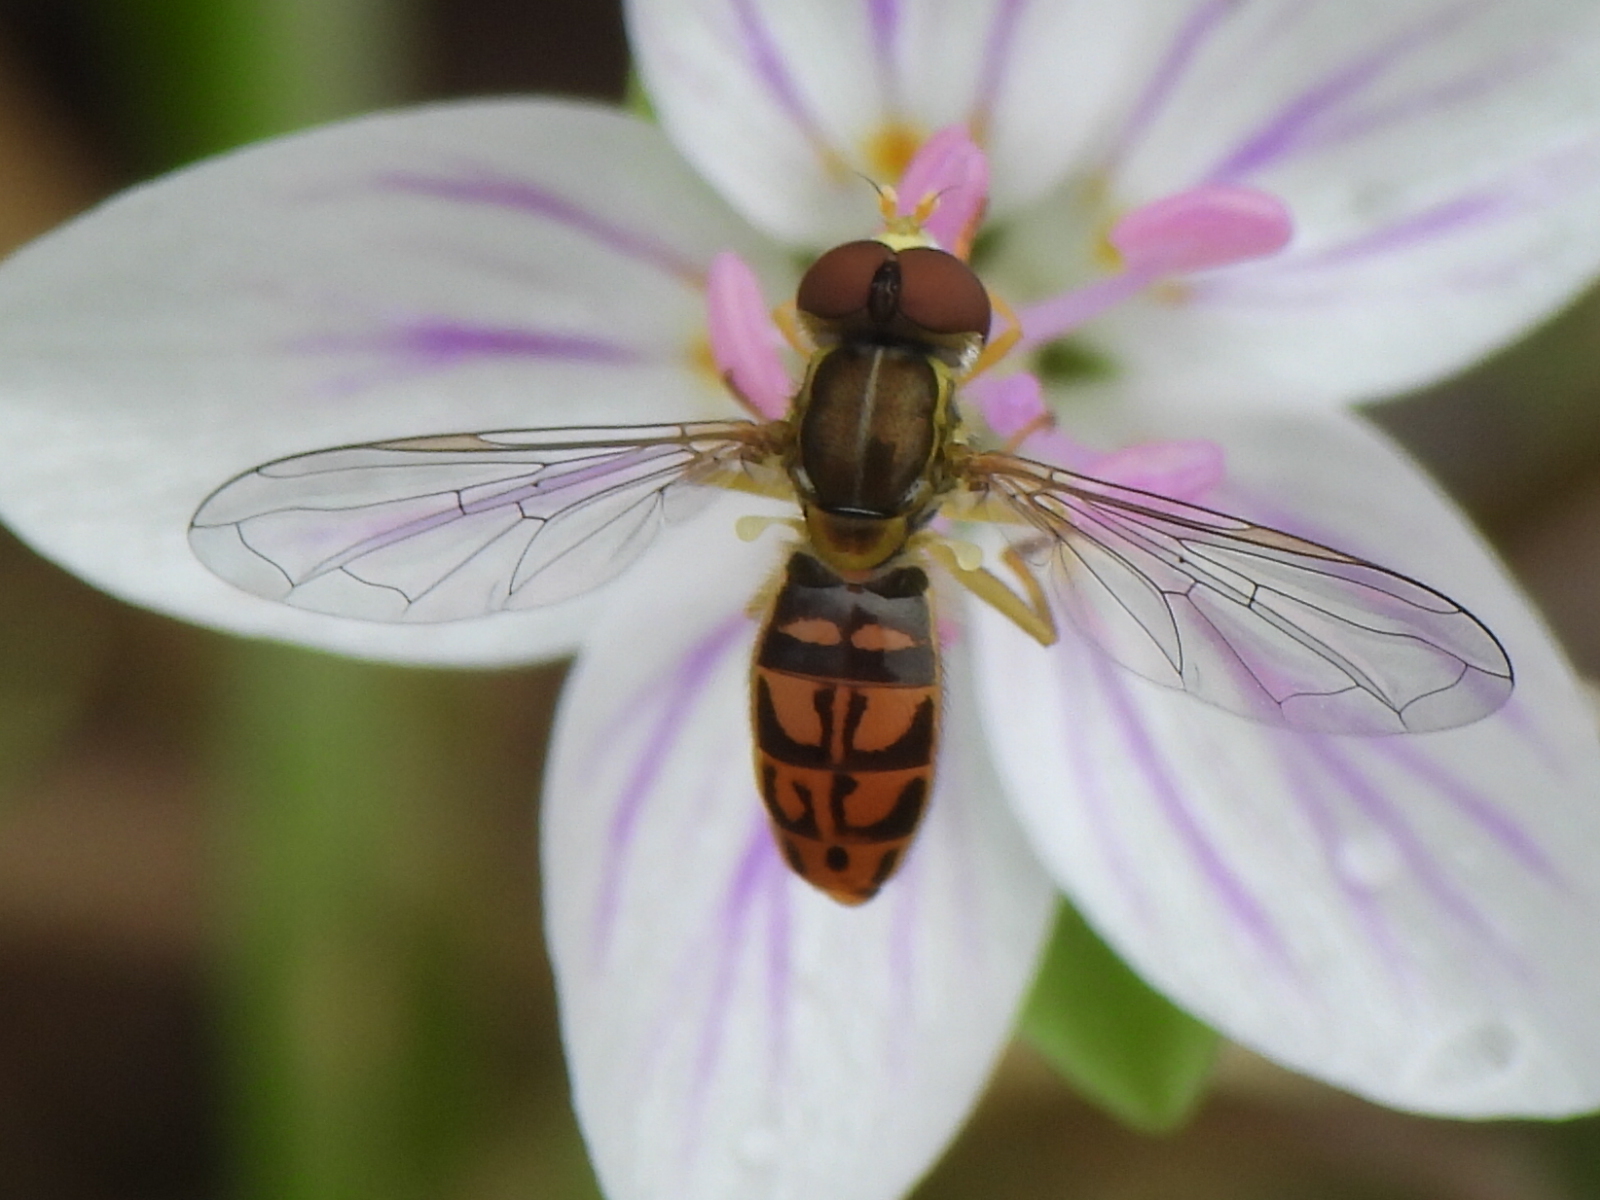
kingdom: Animalia
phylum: Arthropoda
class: Insecta
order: Diptera
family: Syrphidae
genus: Toxomerus
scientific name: Toxomerus marginatus
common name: Syrphid fly
